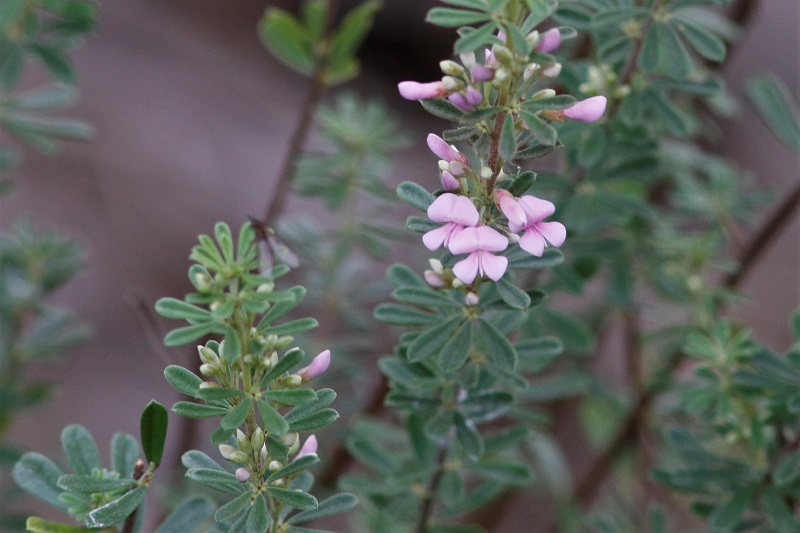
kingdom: Plantae
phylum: Tracheophyta
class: Magnoliopsida
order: Fabales
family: Fabaceae
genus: Indigofera
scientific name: Indigofera flabellata
